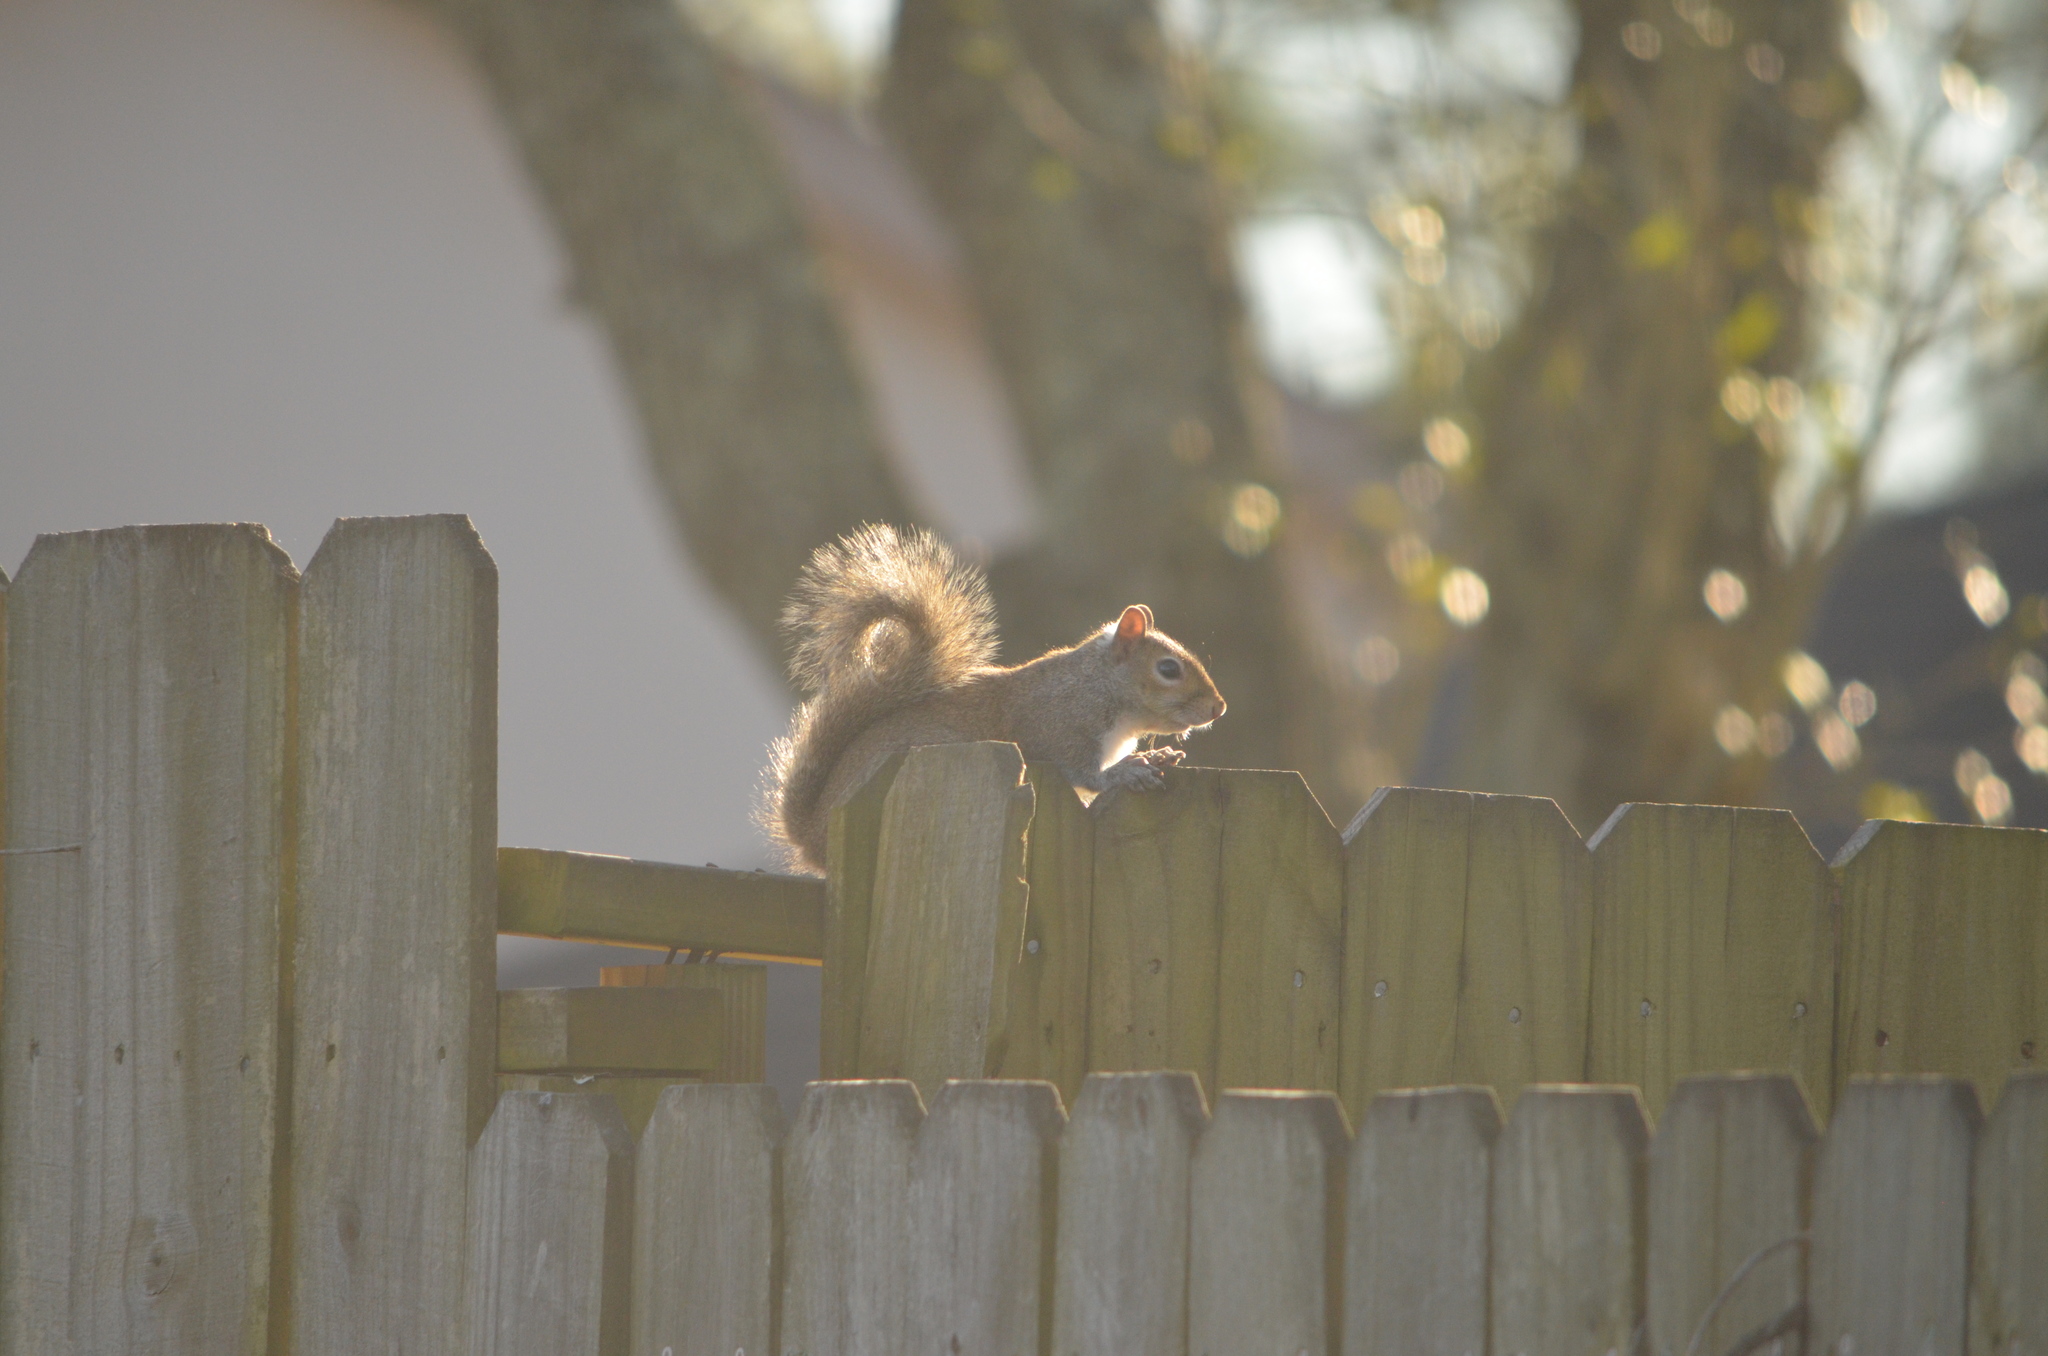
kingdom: Animalia
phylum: Chordata
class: Mammalia
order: Rodentia
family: Sciuridae
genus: Sciurus
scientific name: Sciurus carolinensis
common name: Eastern gray squirrel
